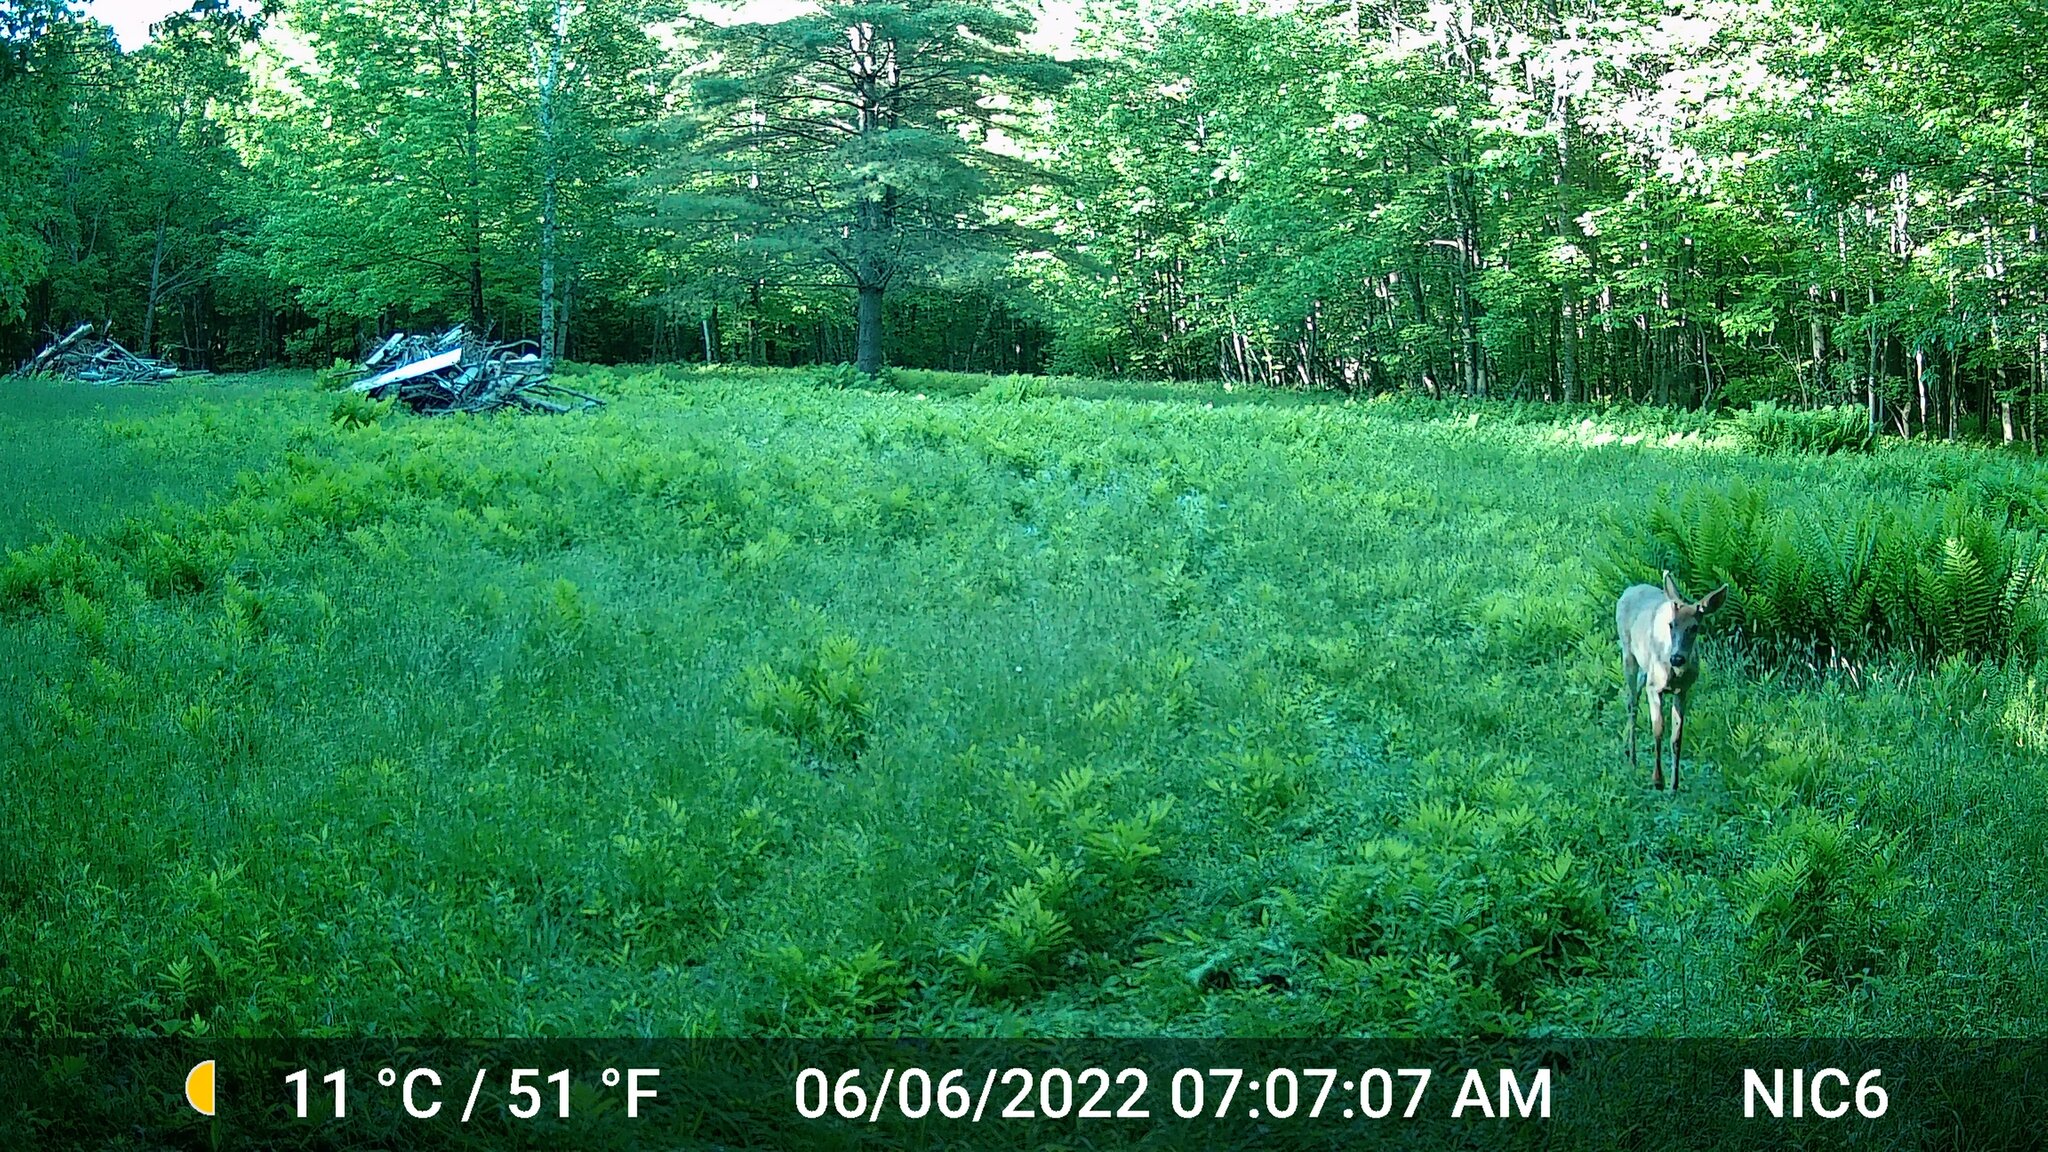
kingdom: Animalia
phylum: Chordata
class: Mammalia
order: Artiodactyla
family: Cervidae
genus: Odocoileus
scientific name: Odocoileus virginianus
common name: White-tailed deer
